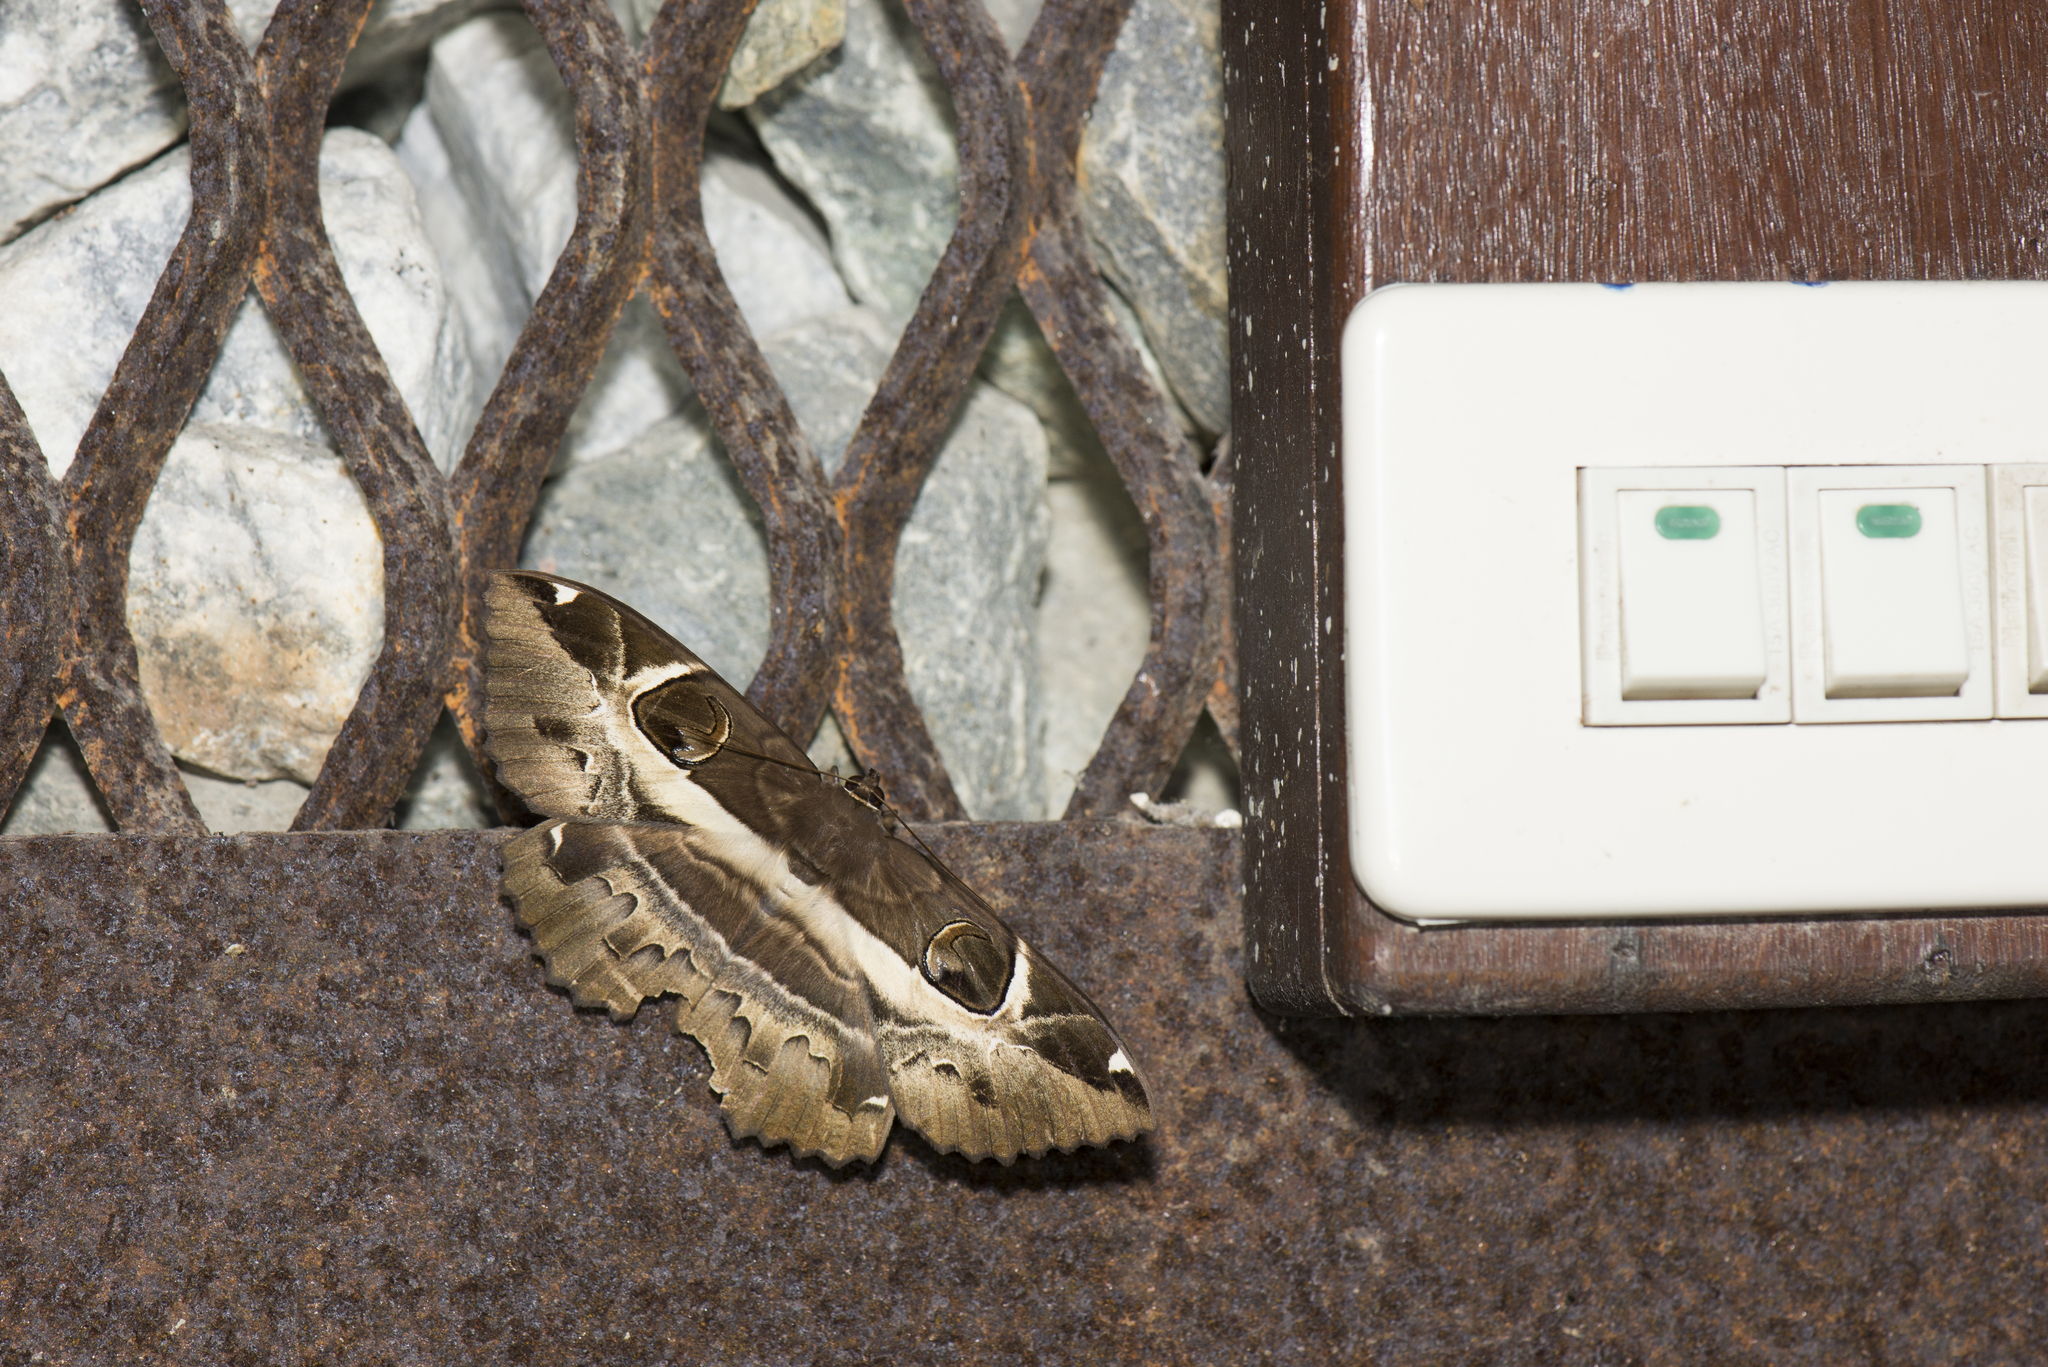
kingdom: Animalia
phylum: Arthropoda
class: Insecta
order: Lepidoptera
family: Erebidae
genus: Erebus
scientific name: Erebus ephesperis
